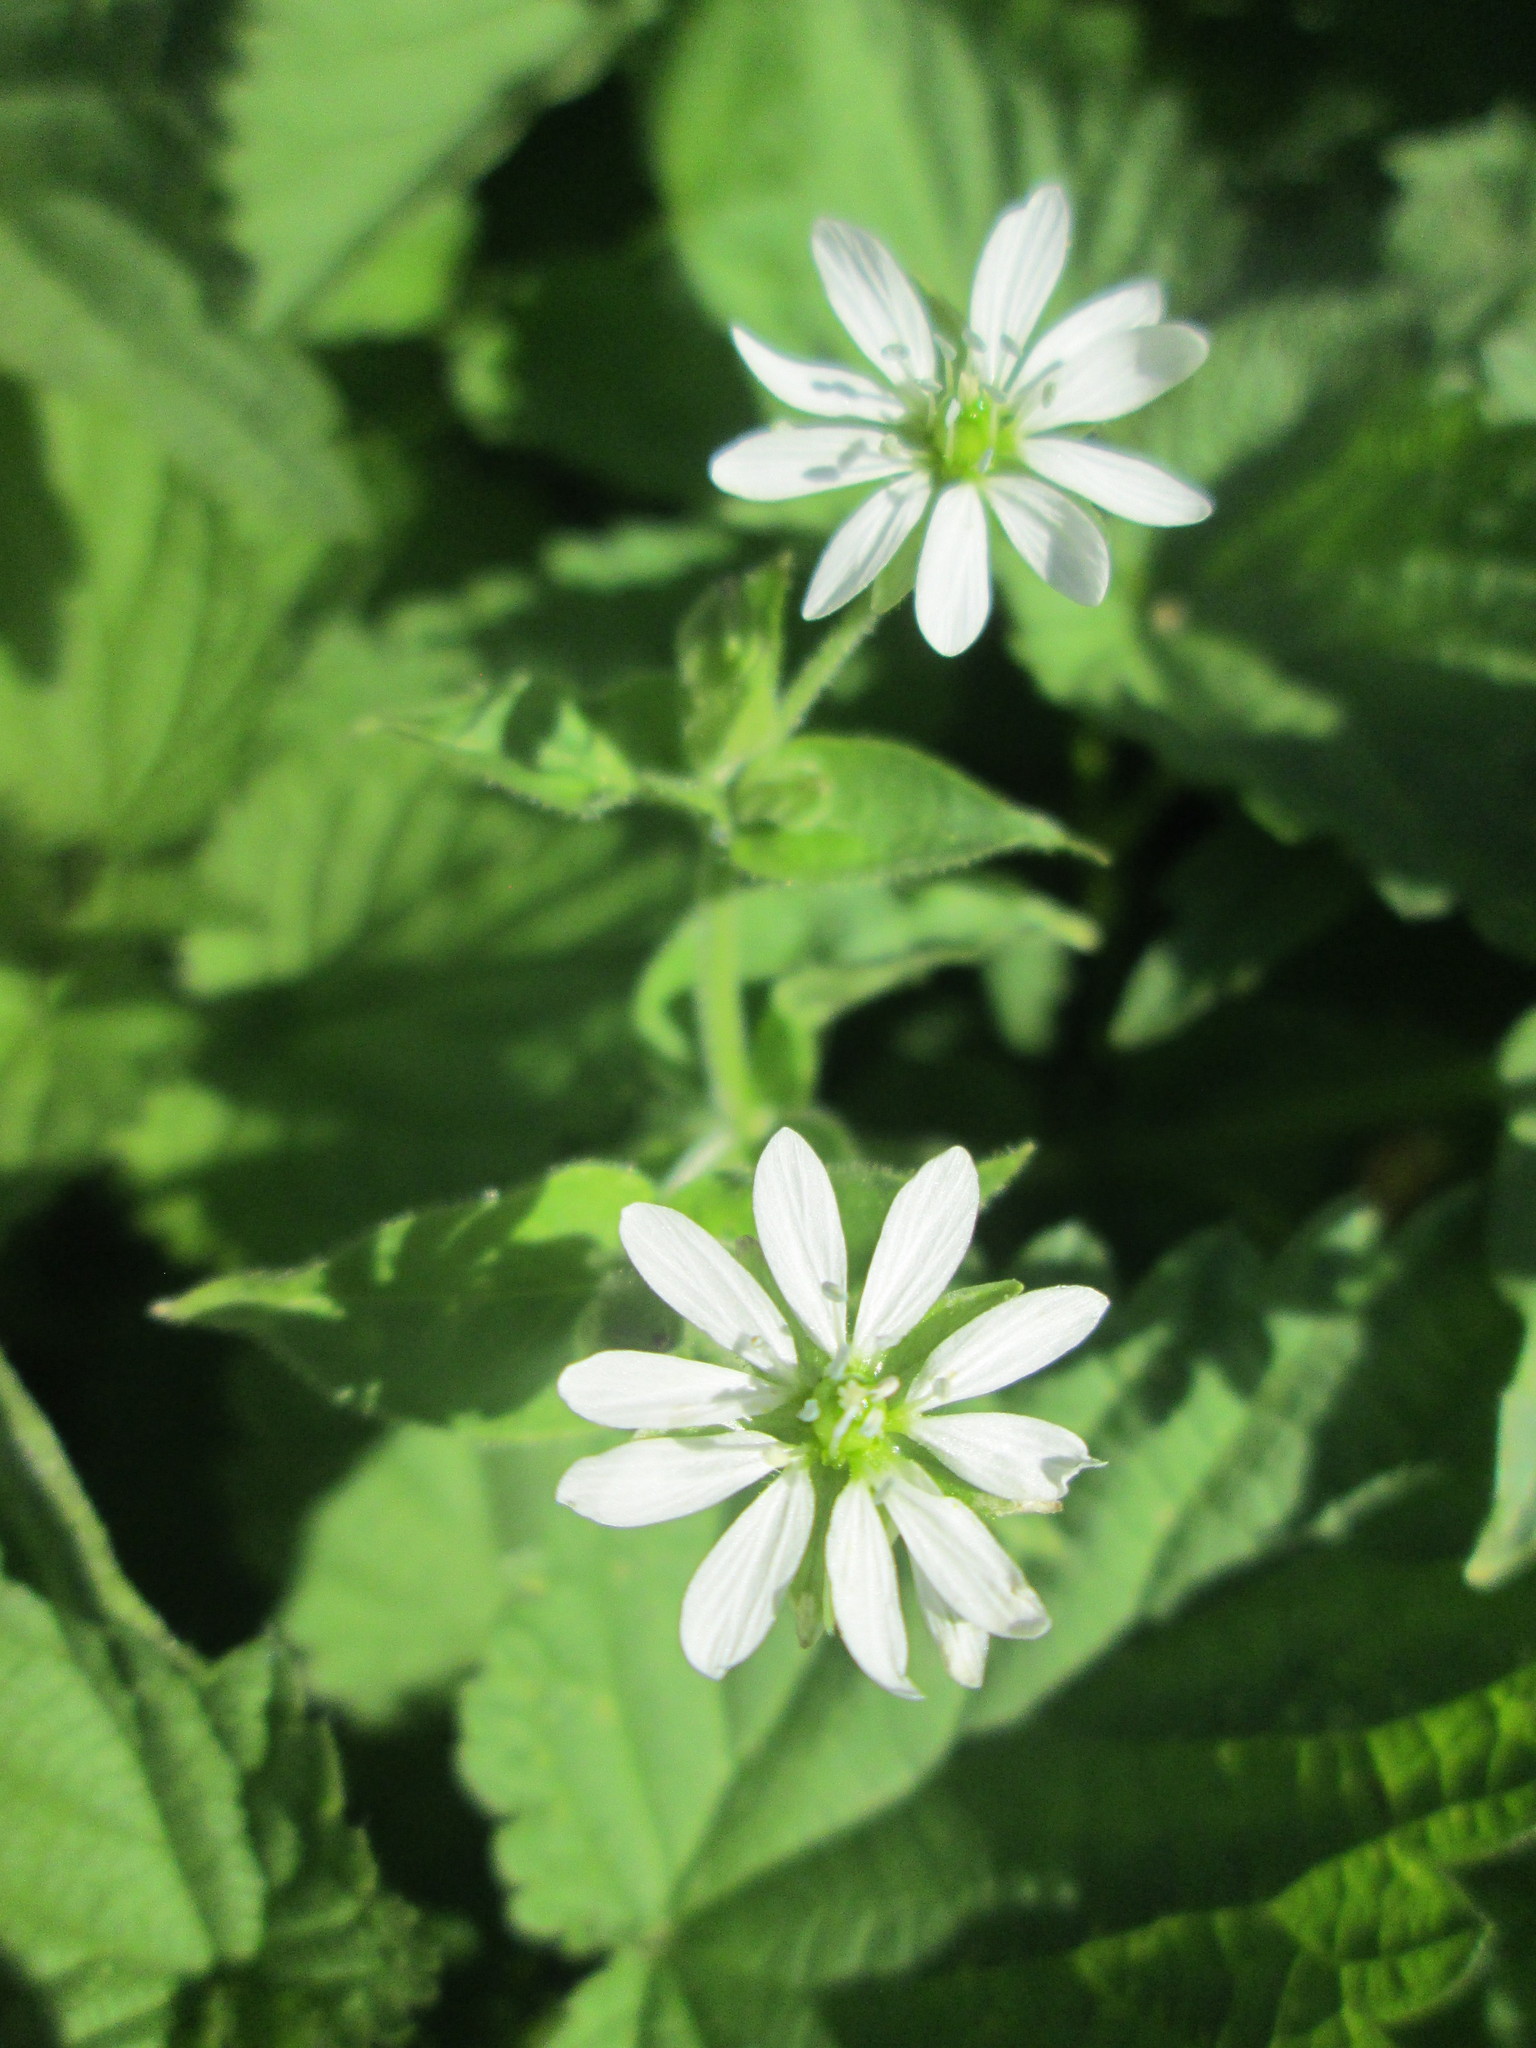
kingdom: Plantae
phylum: Tracheophyta
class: Magnoliopsida
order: Caryophyllales
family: Caryophyllaceae
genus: Stellaria
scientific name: Stellaria aquatica
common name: Water chickweed
